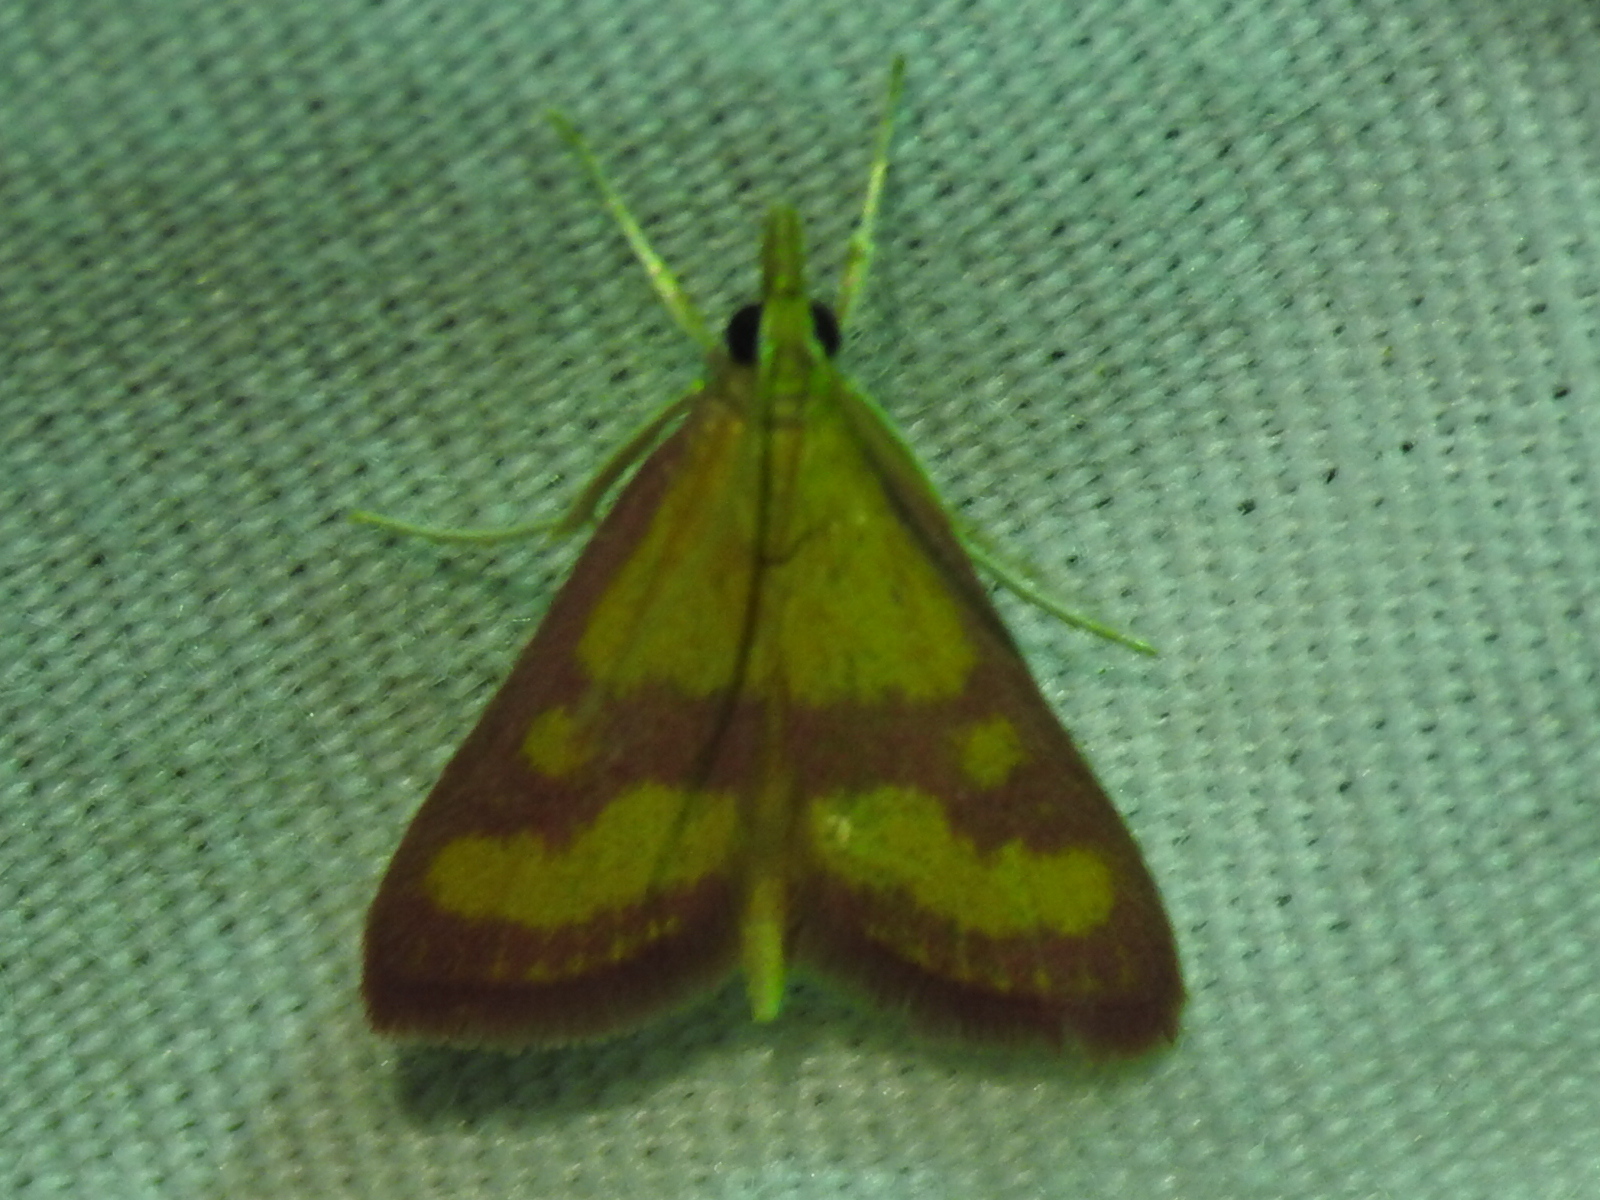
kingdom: Animalia
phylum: Arthropoda
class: Insecta
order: Lepidoptera
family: Crambidae
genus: Pyrausta
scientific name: Pyrausta laticlavia
